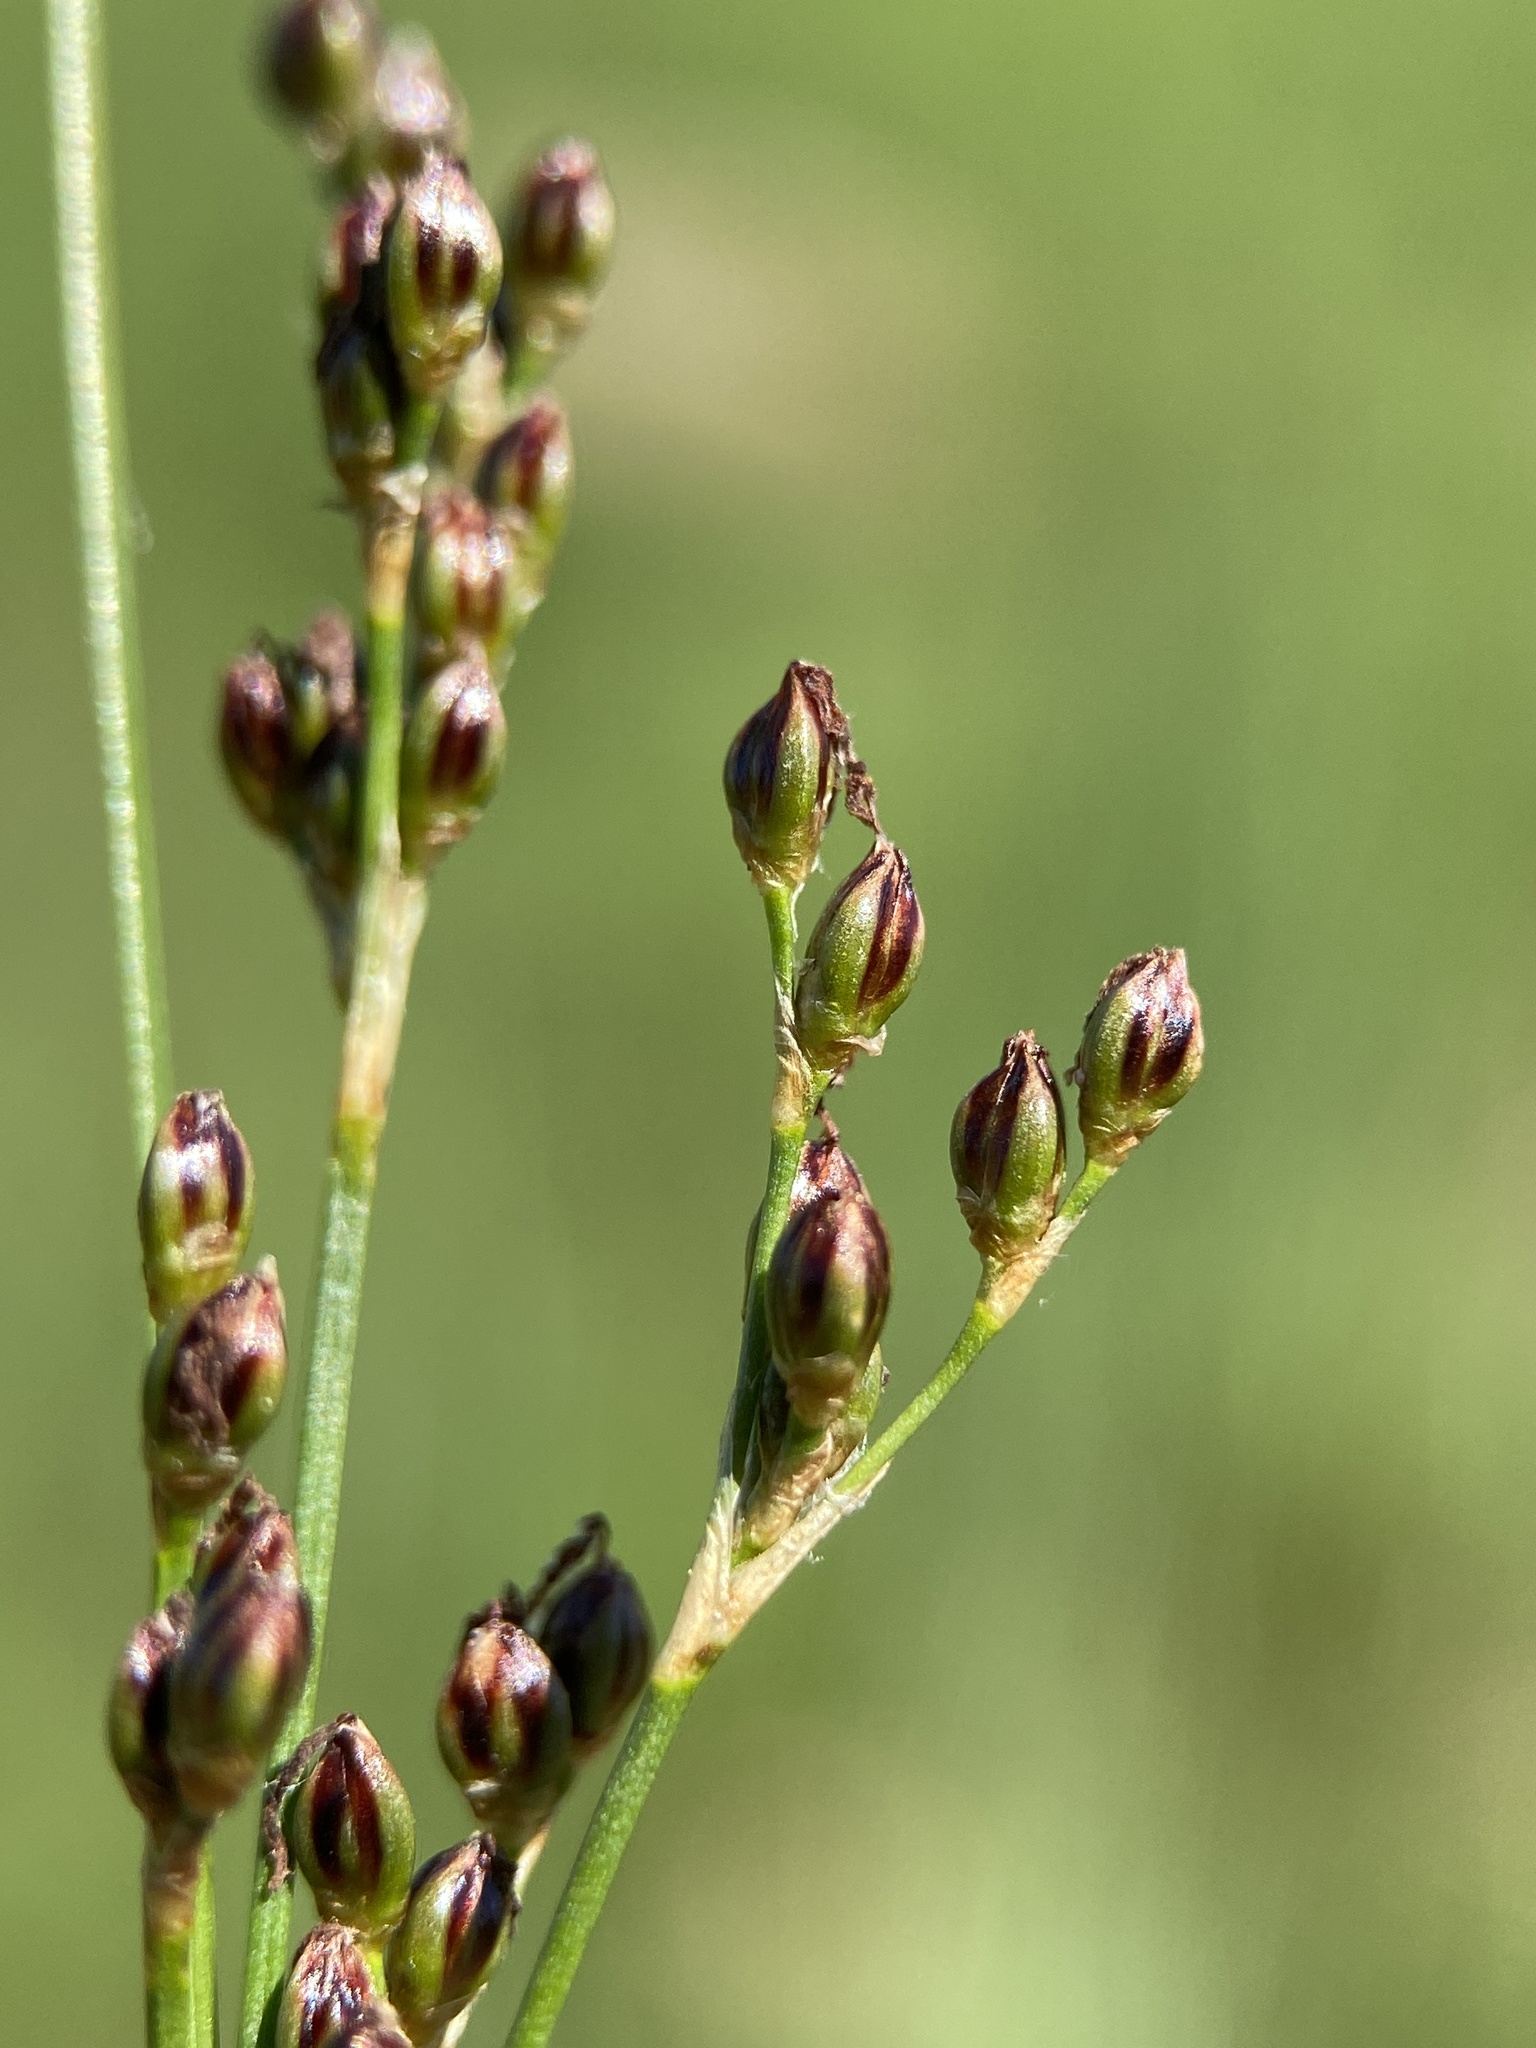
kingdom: Plantae
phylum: Tracheophyta
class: Liliopsida
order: Poales
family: Juncaceae
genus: Juncus
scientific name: Juncus gerardi
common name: Saltmarsh rush
